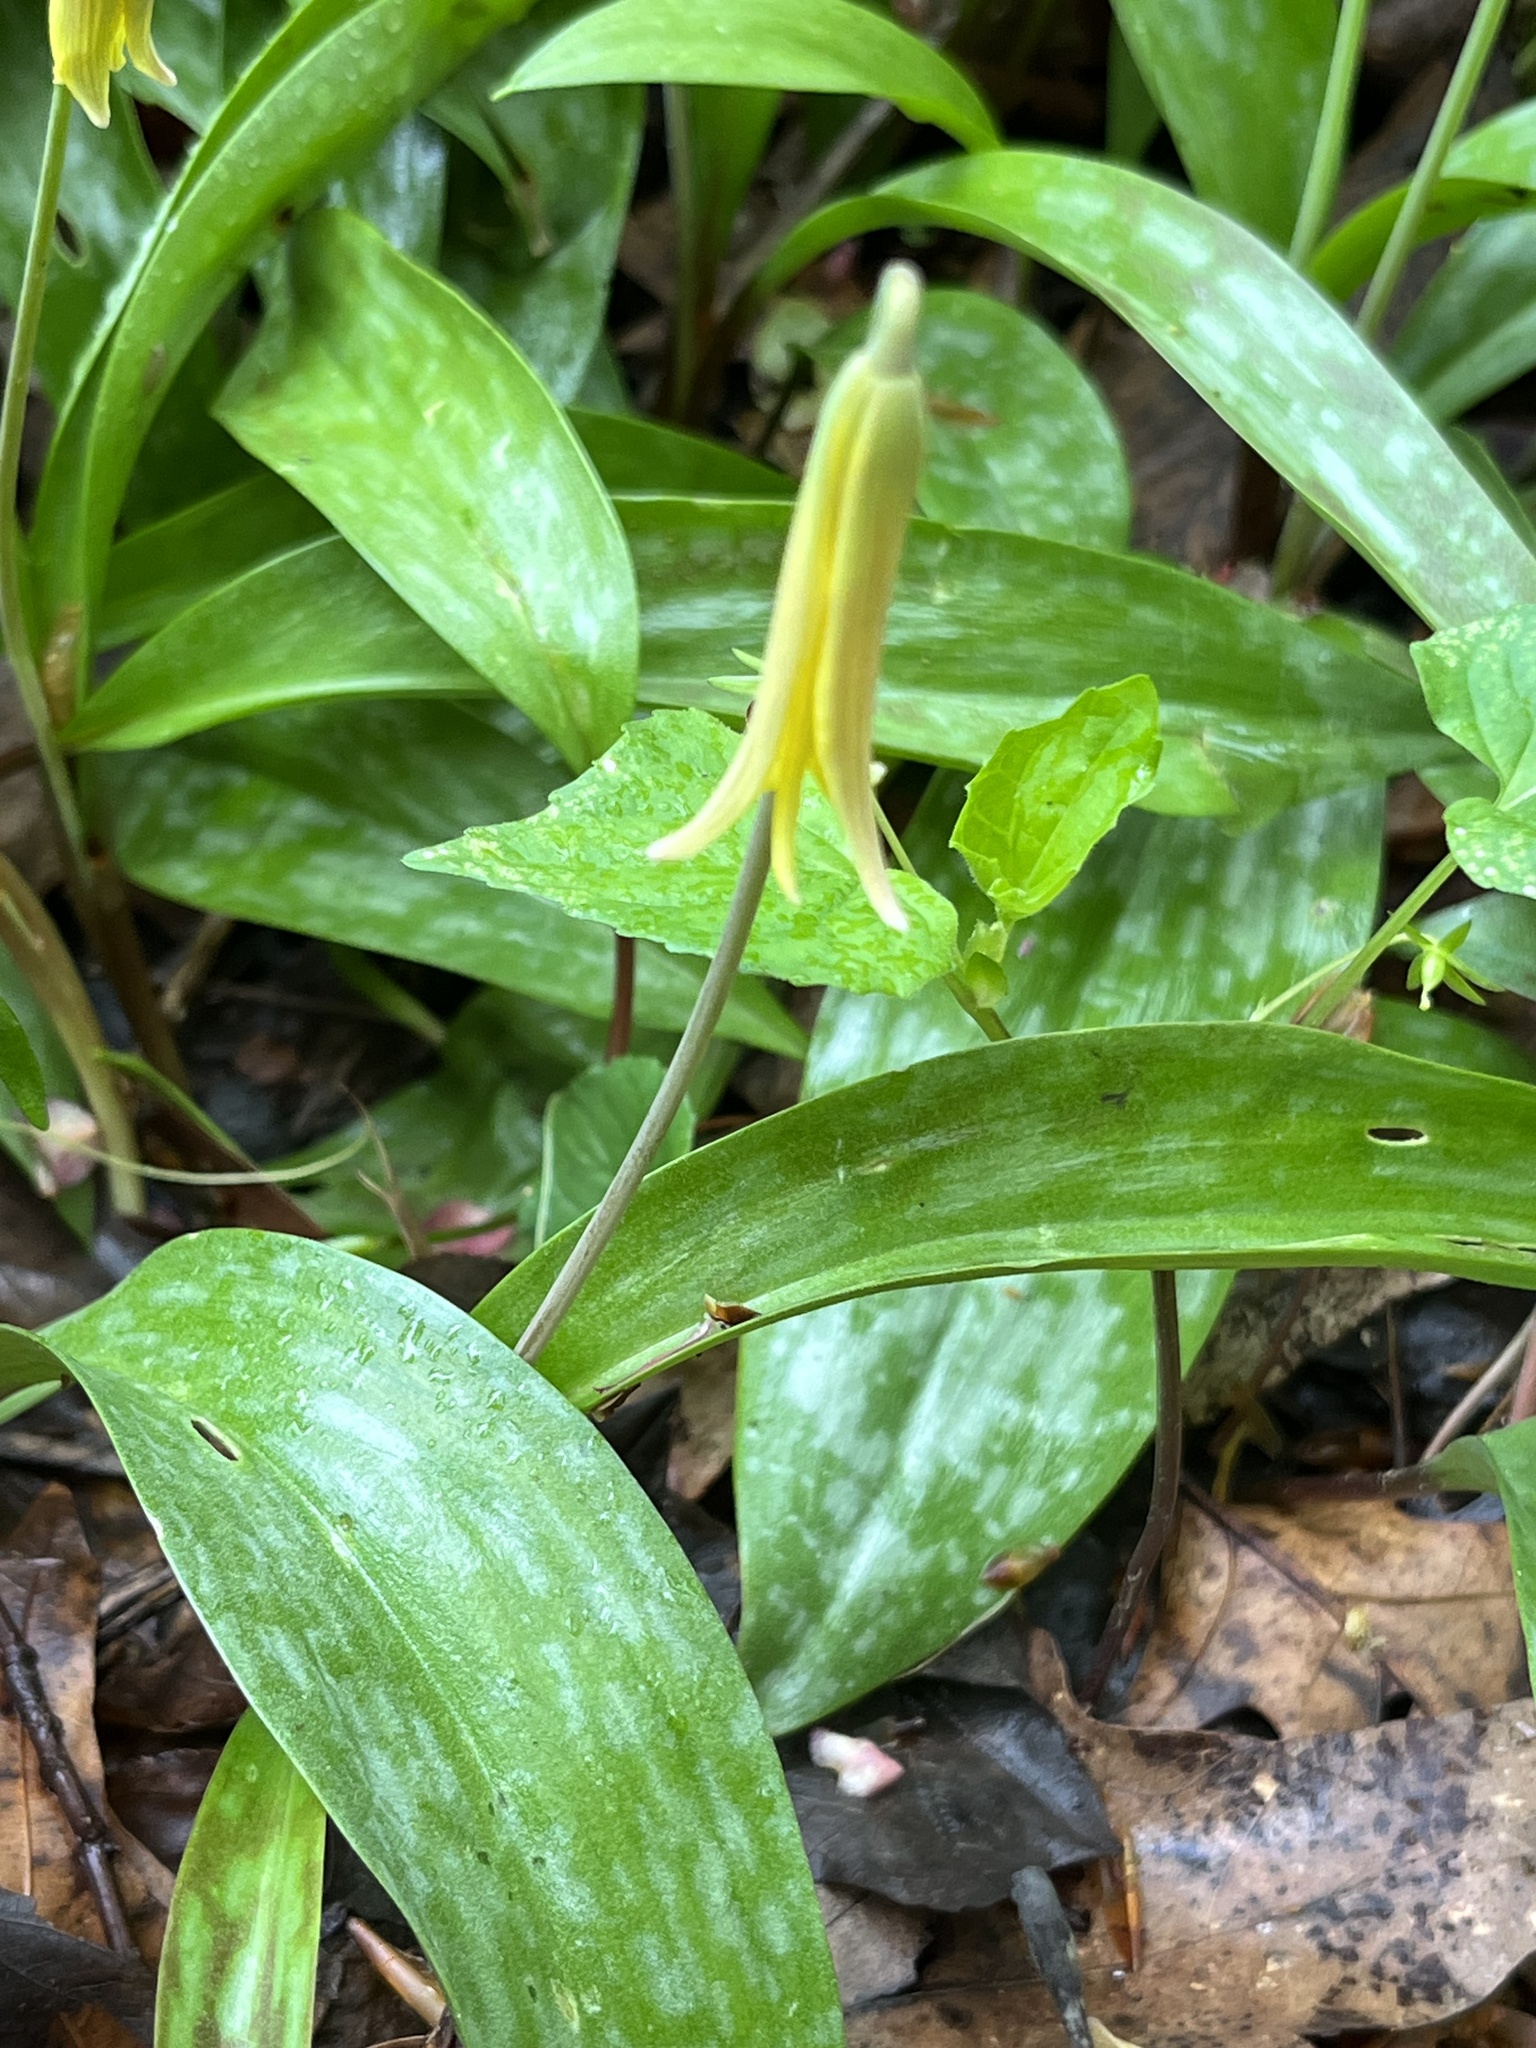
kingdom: Plantae
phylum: Tracheophyta
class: Liliopsida
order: Liliales
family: Liliaceae
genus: Erythronium
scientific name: Erythronium americanum
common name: Yellow adder's-tongue
